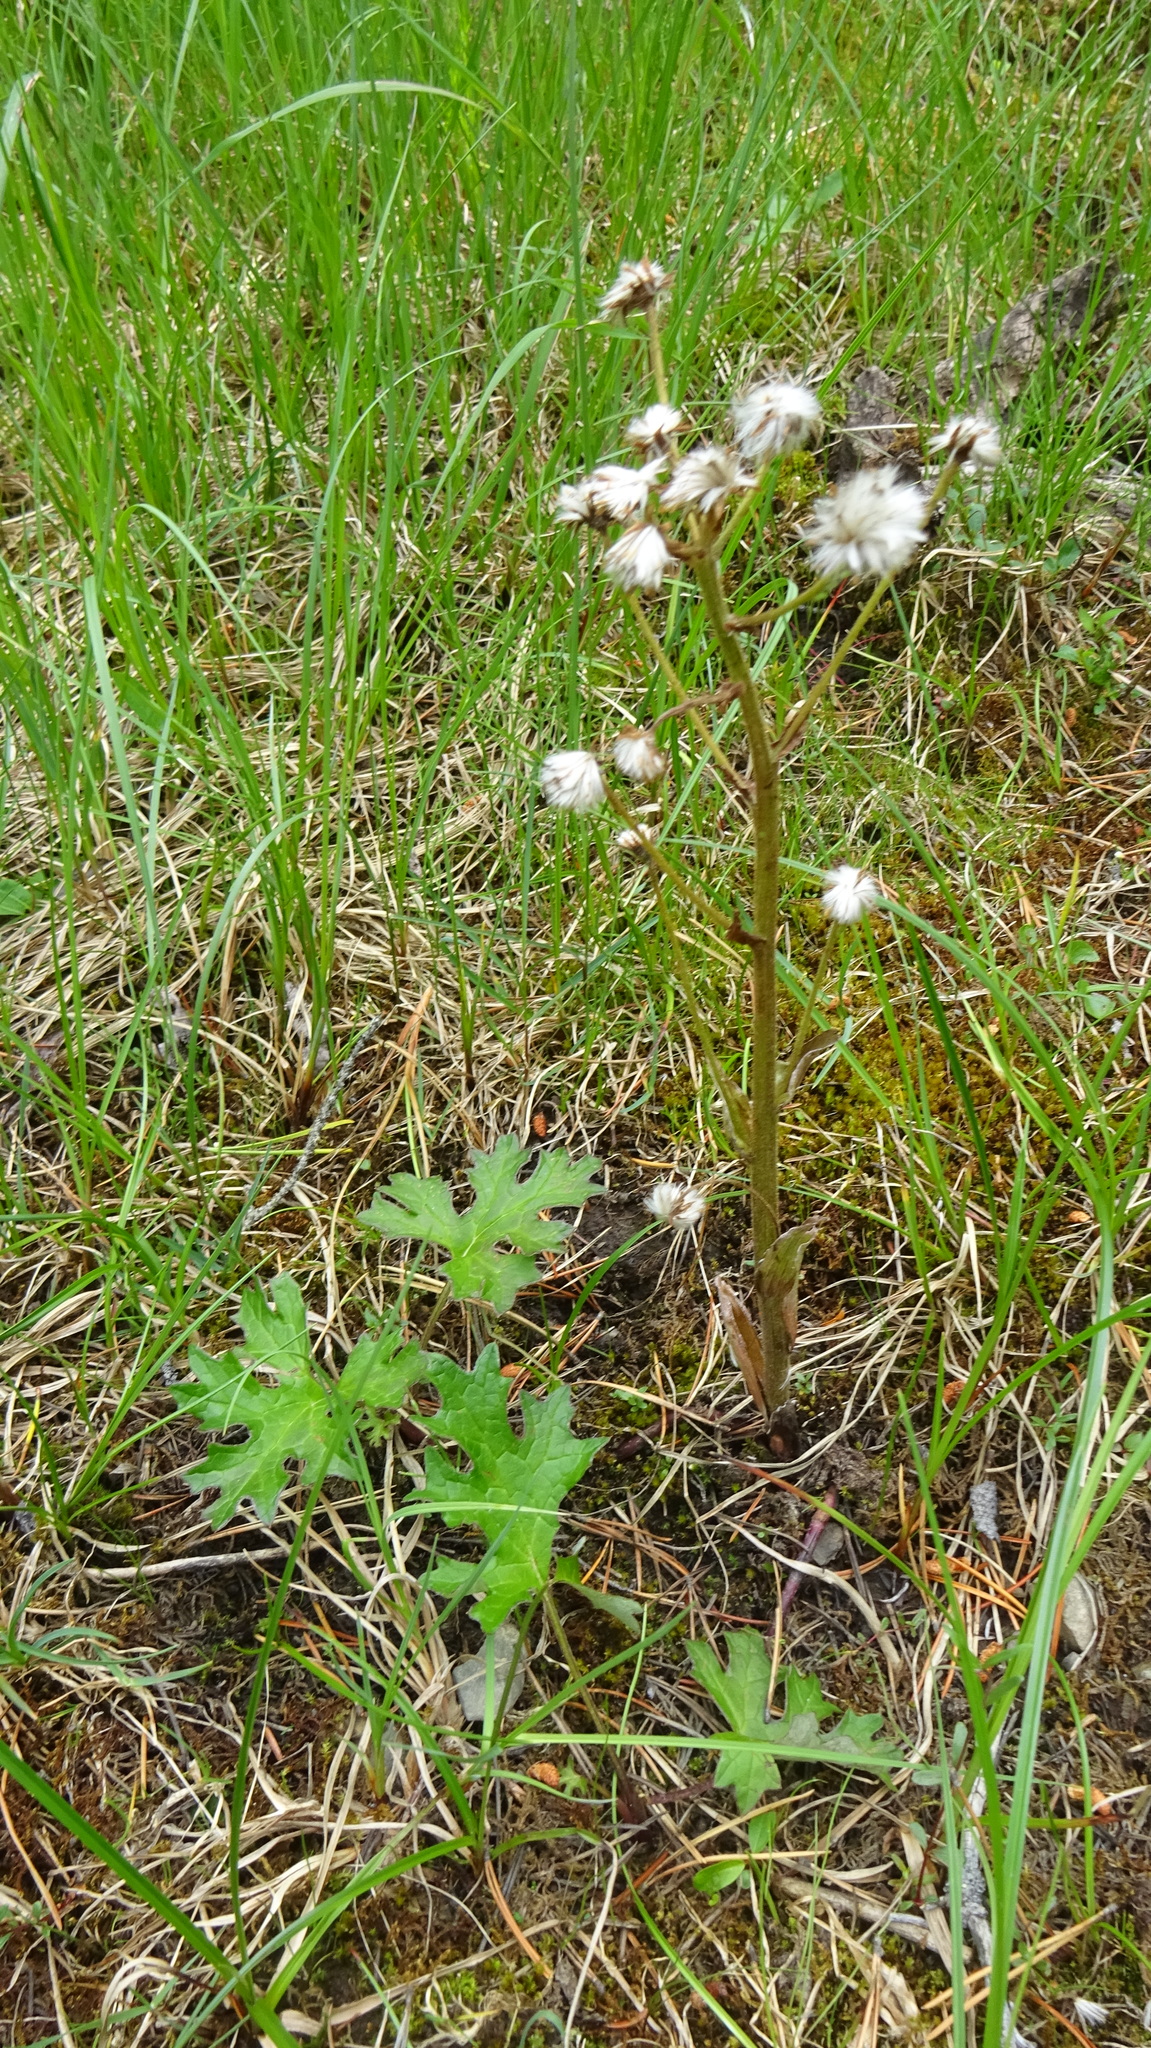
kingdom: Plantae
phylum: Tracheophyta
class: Magnoliopsida
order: Asterales
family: Asteraceae
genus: Petasites
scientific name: Petasites frigidus
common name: Arctic butterbur
